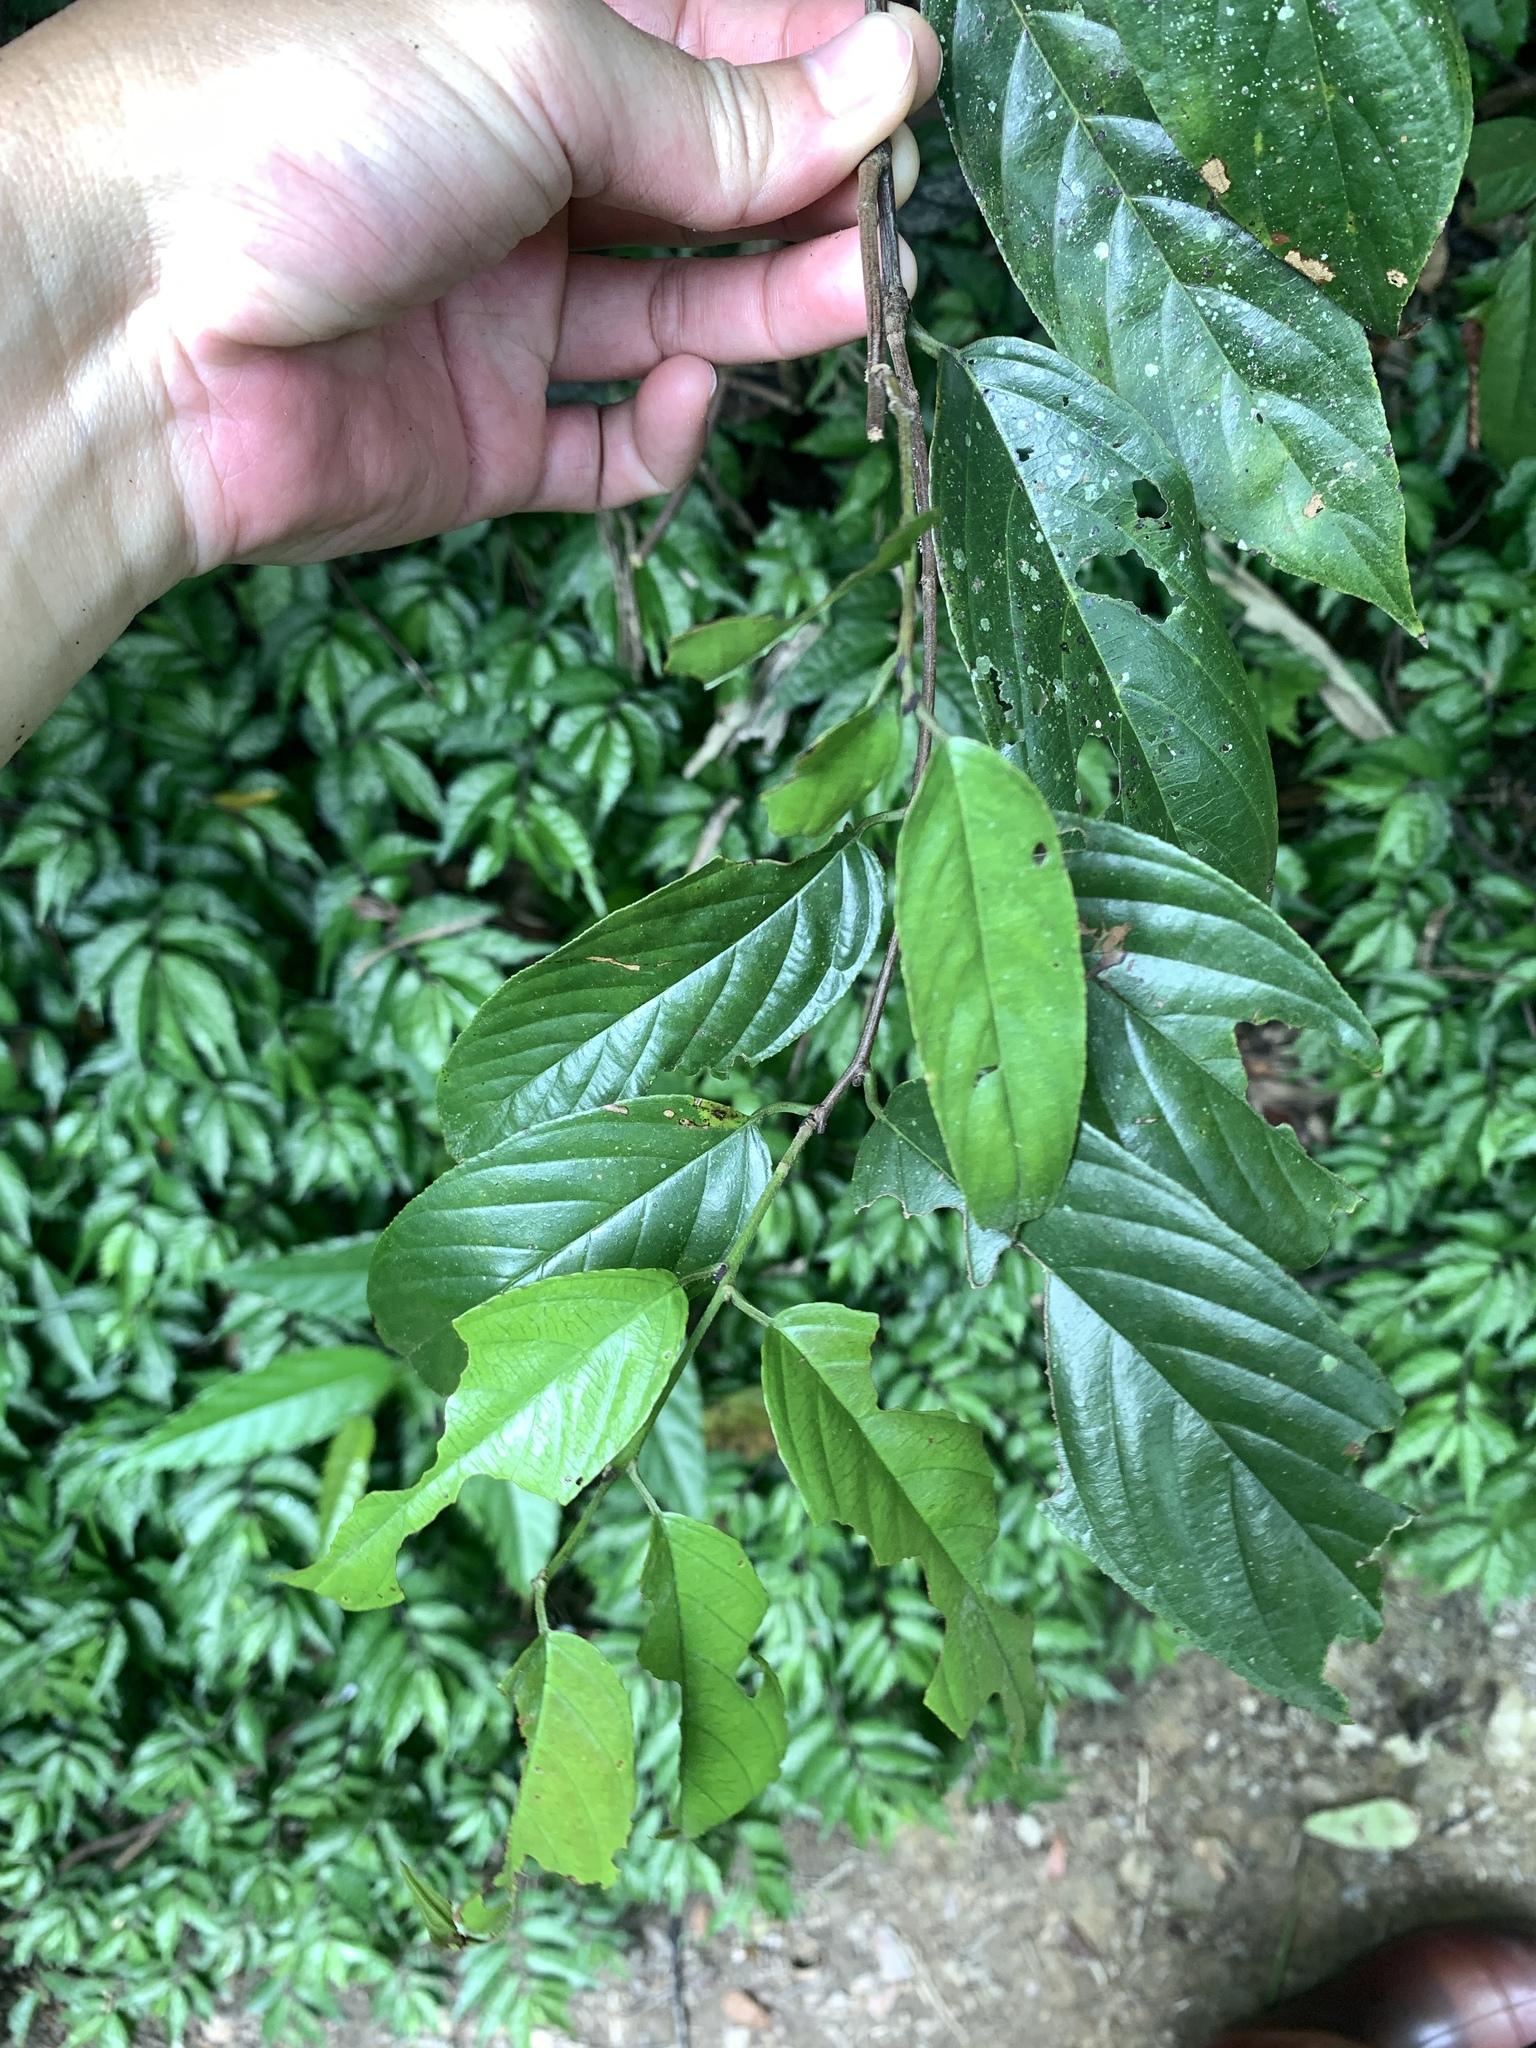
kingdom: Plantae
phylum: Tracheophyta
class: Magnoliopsida
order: Rosales
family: Rhamnaceae
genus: Sageretia
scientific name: Sageretia randaiensis
